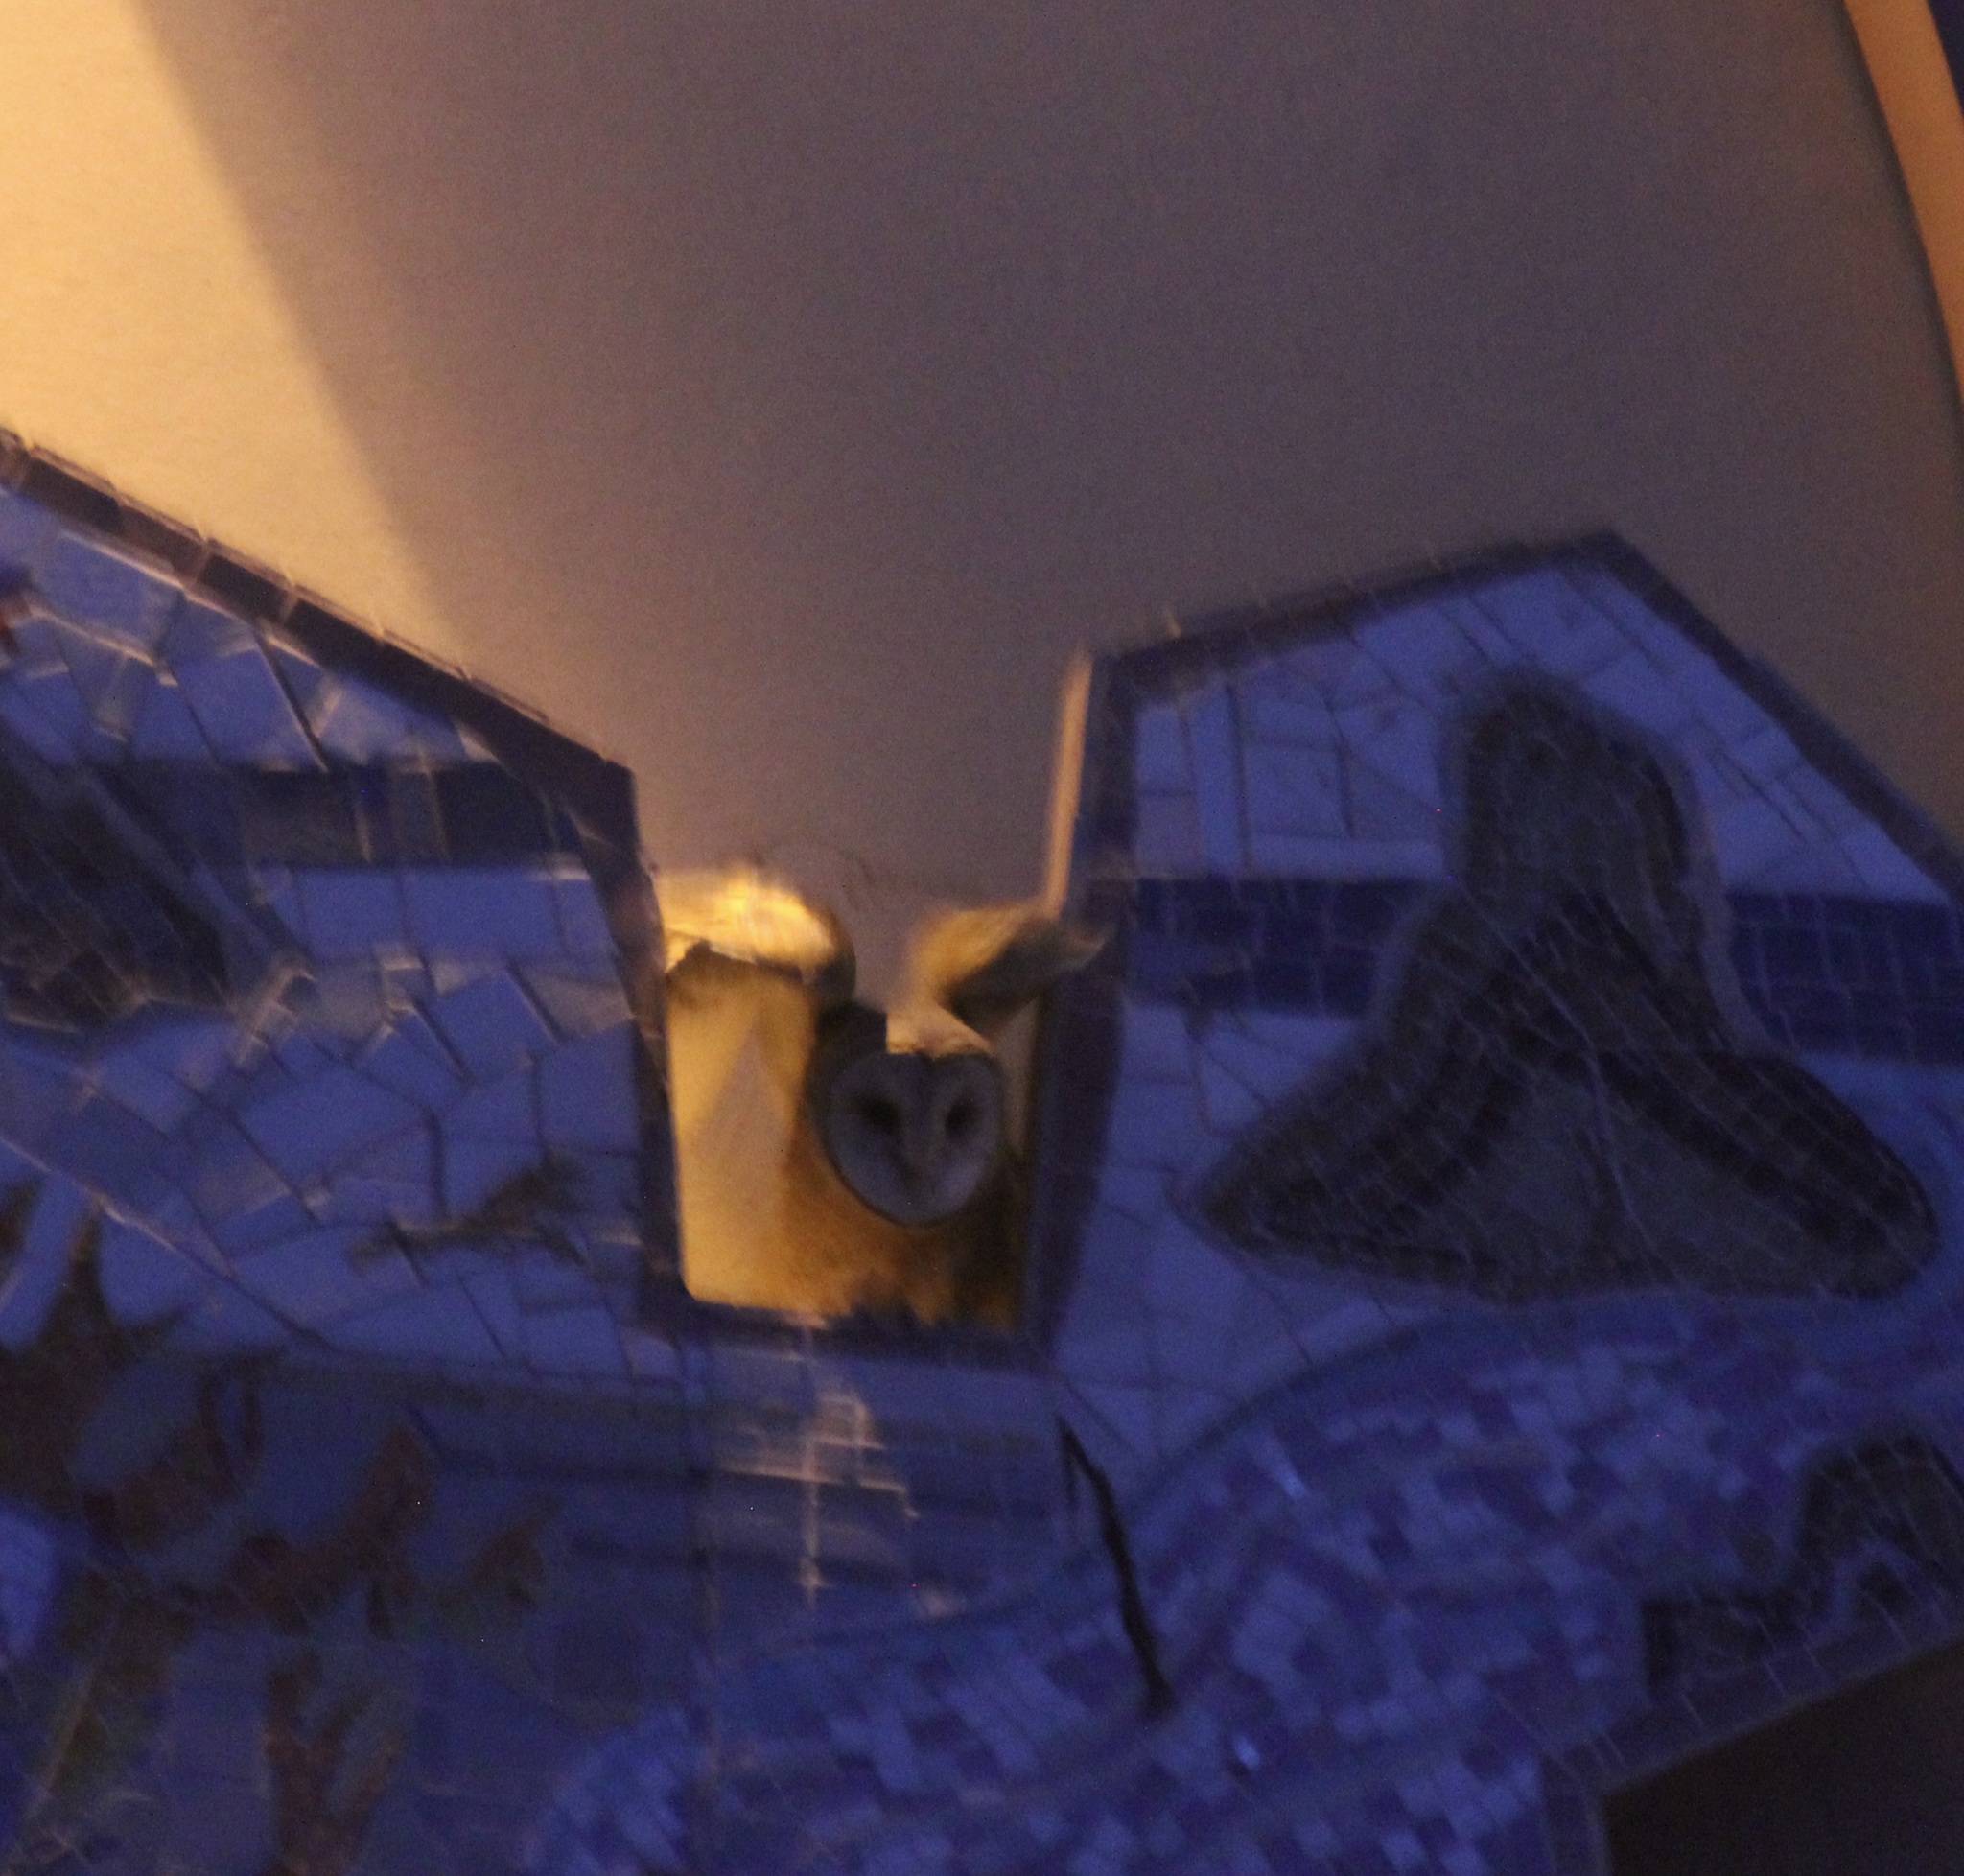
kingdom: Animalia
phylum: Chordata
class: Aves
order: Strigiformes
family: Tytonidae
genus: Tyto
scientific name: Tyto alba
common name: Barn owl
